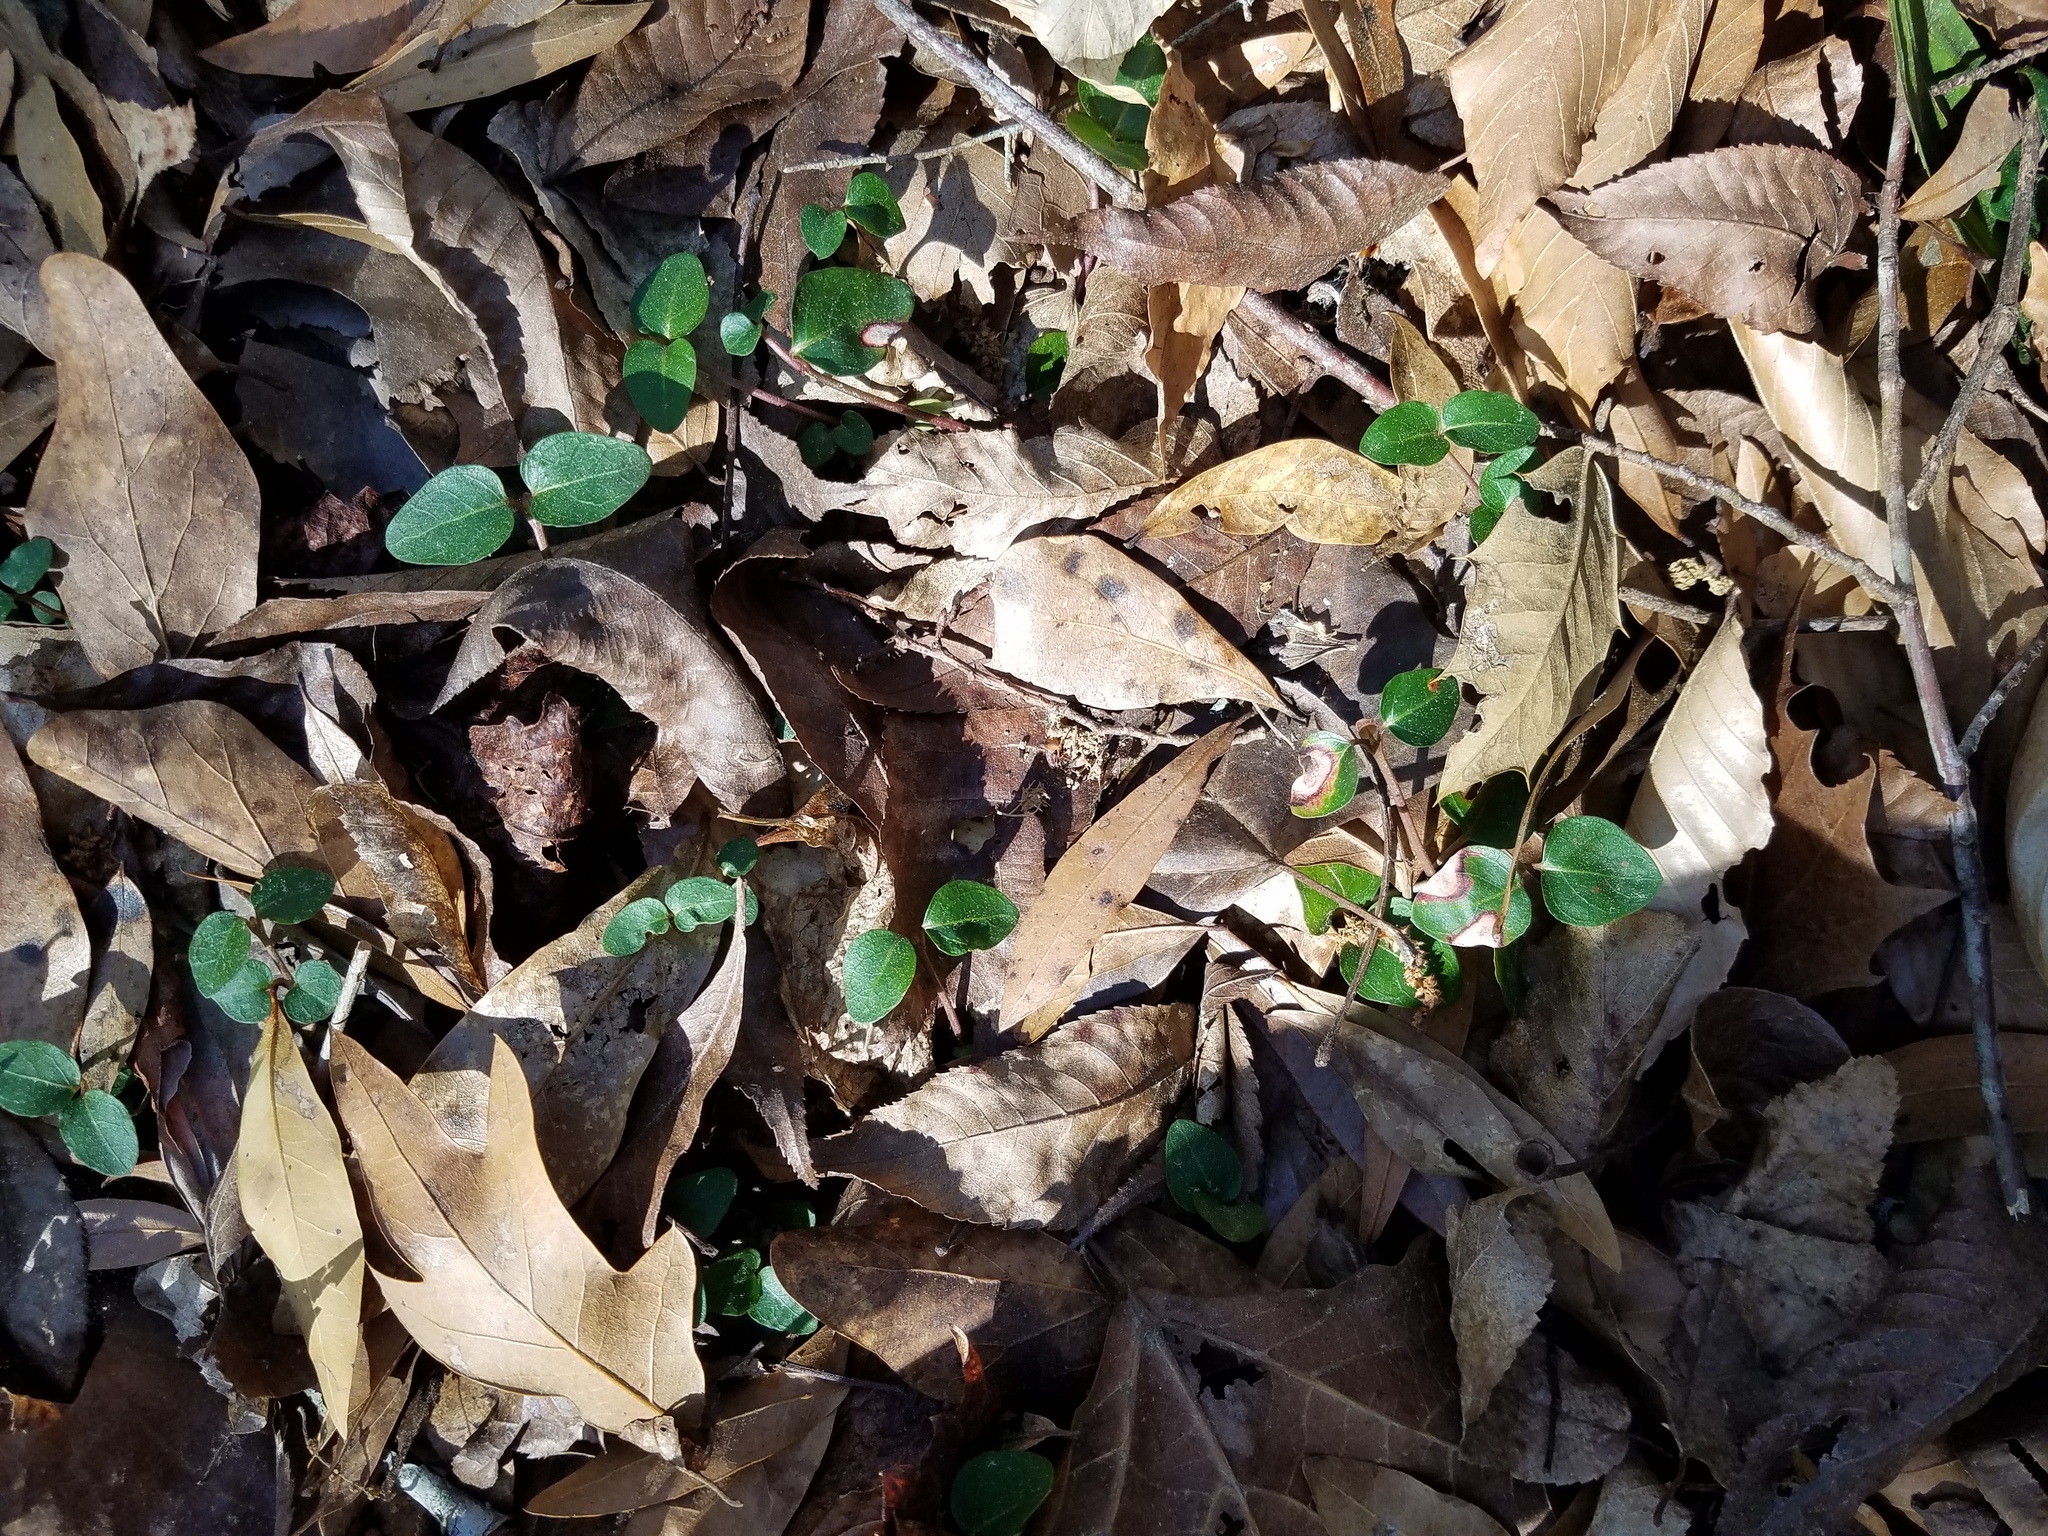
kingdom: Plantae
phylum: Tracheophyta
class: Magnoliopsida
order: Gentianales
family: Rubiaceae
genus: Mitchella
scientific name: Mitchella repens
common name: Partridge-berry
